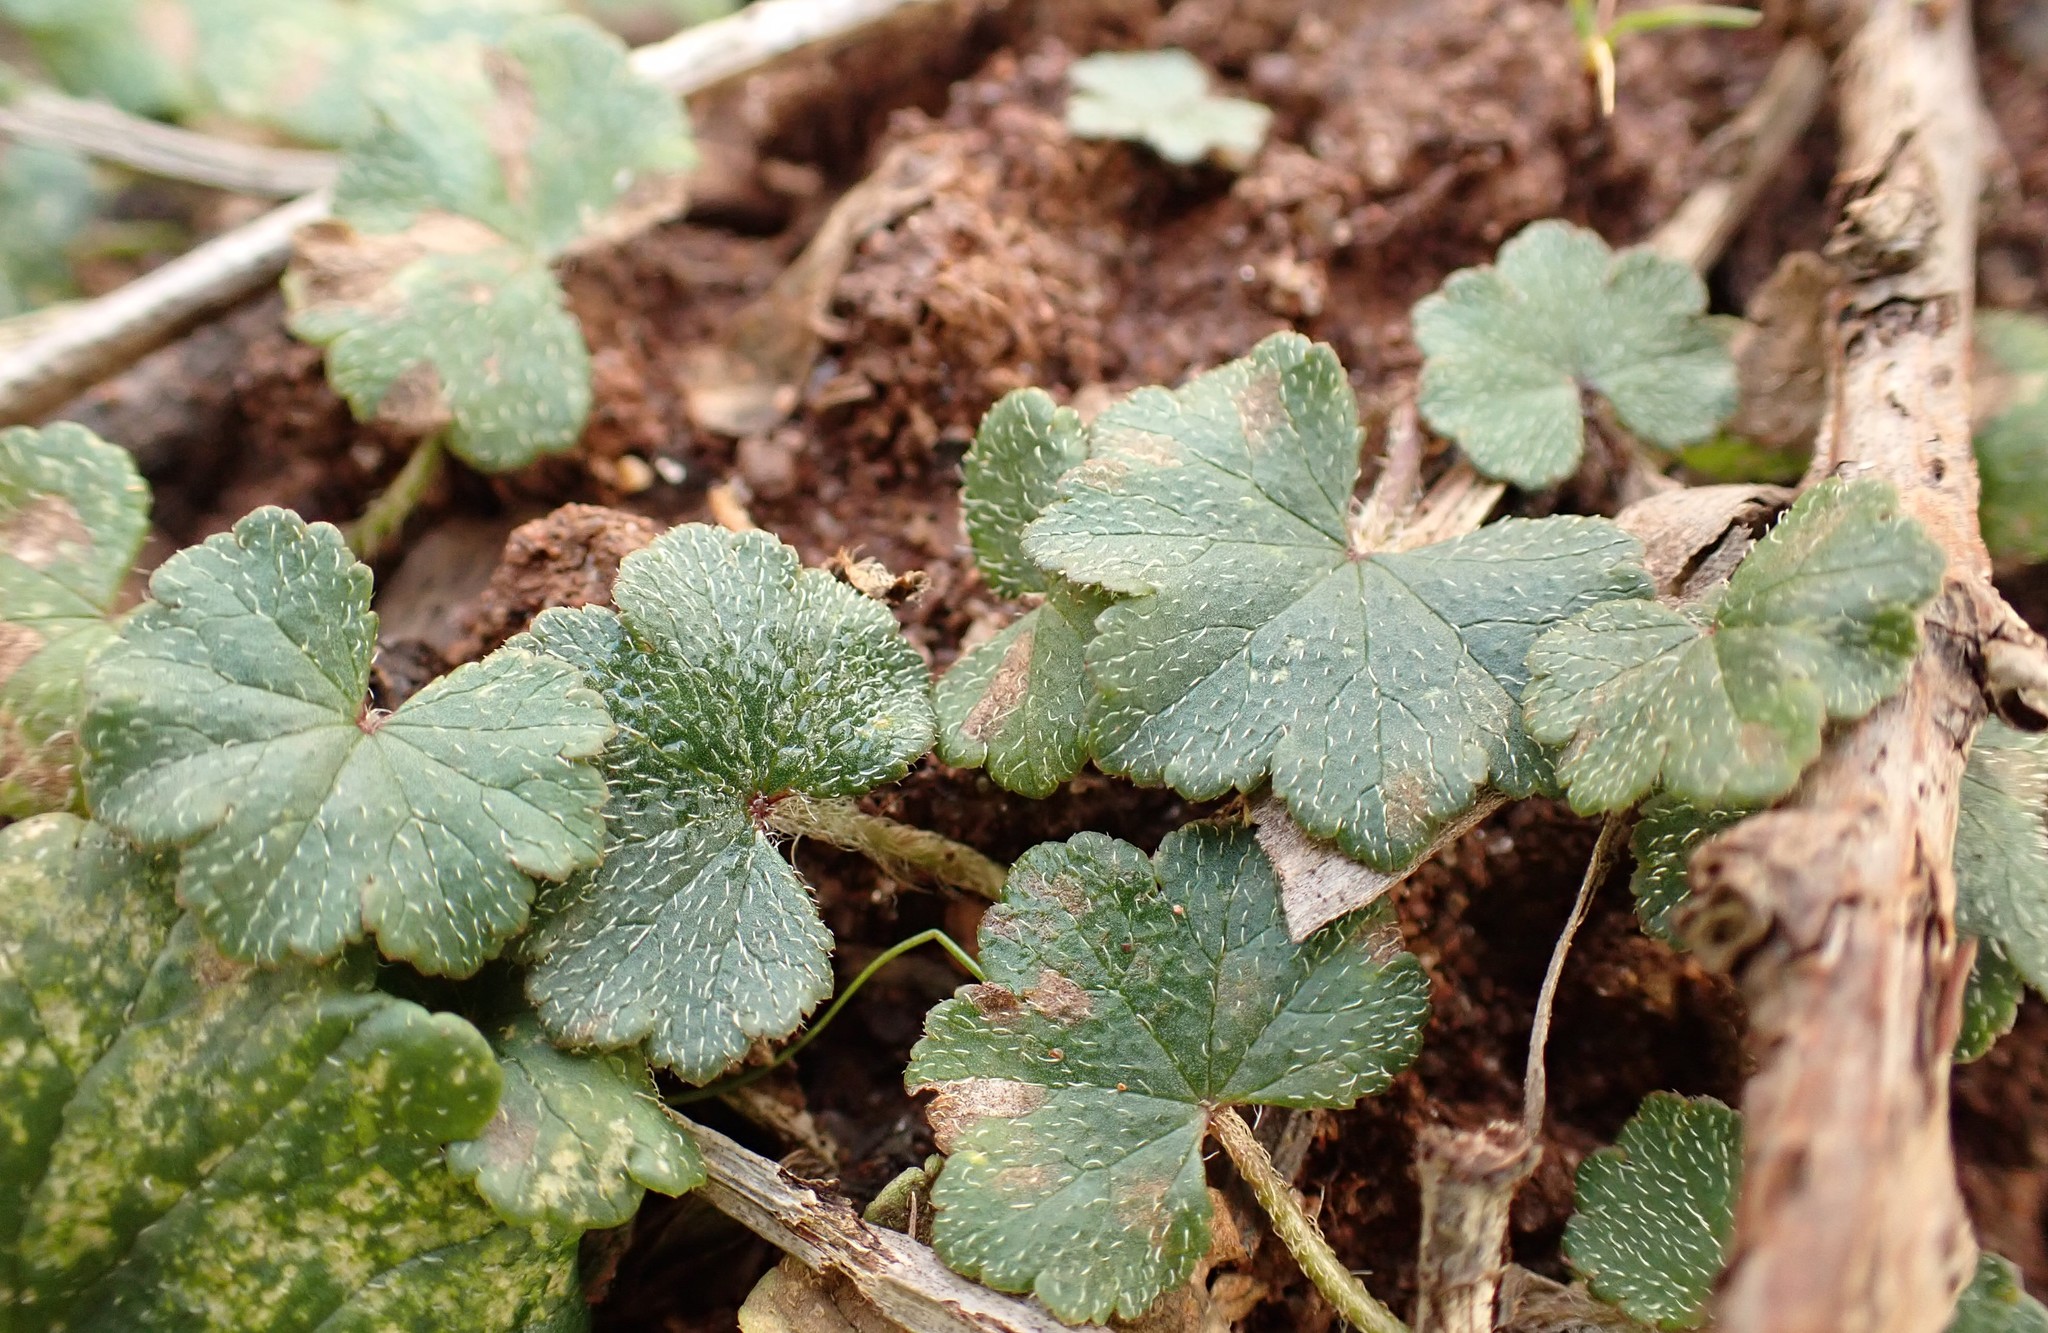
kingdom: Plantae
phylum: Tracheophyta
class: Magnoliopsida
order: Apiales
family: Araliaceae
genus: Hydrocotyle
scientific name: Hydrocotyle hirta
